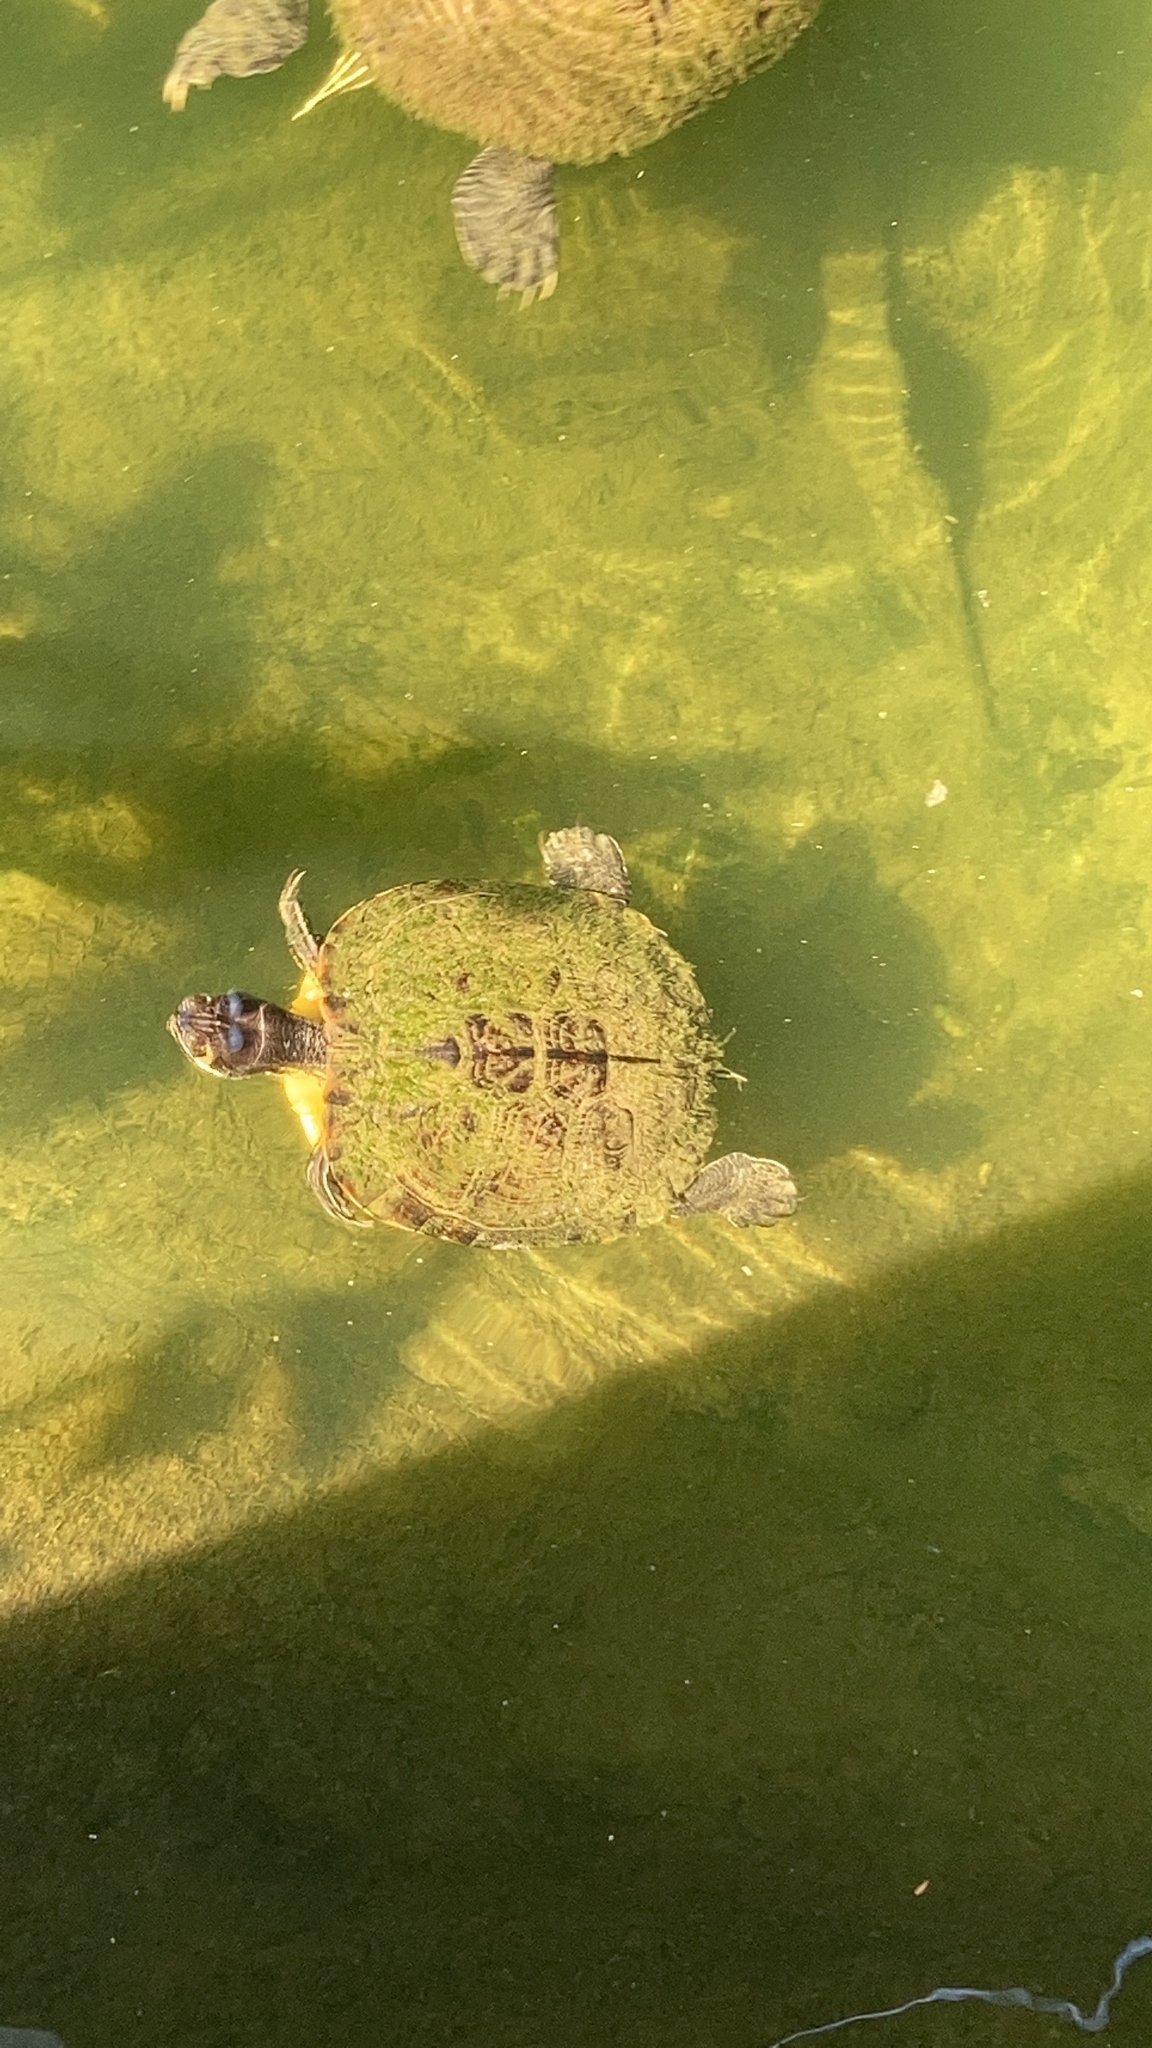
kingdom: Animalia
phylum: Chordata
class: Testudines
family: Emydidae
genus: Trachemys
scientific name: Trachemys scripta
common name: Slider
